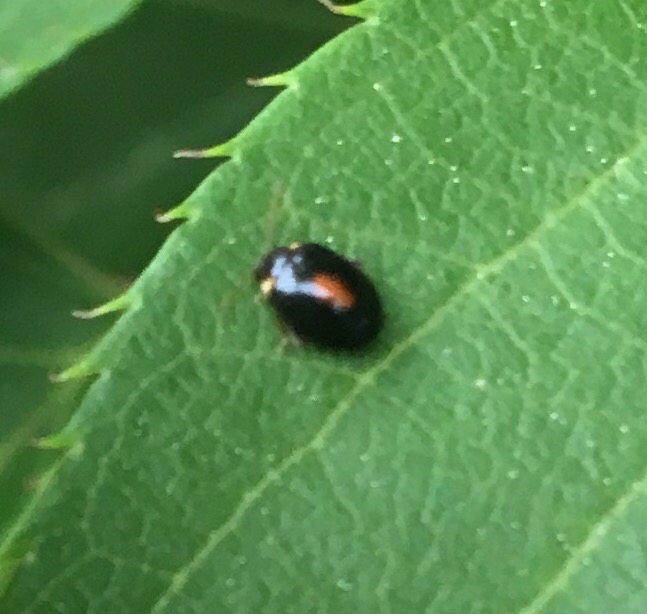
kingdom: Animalia
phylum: Arthropoda
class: Insecta
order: Coleoptera
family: Scirtidae
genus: Scirtes
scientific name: Scirtes orbiculatus
